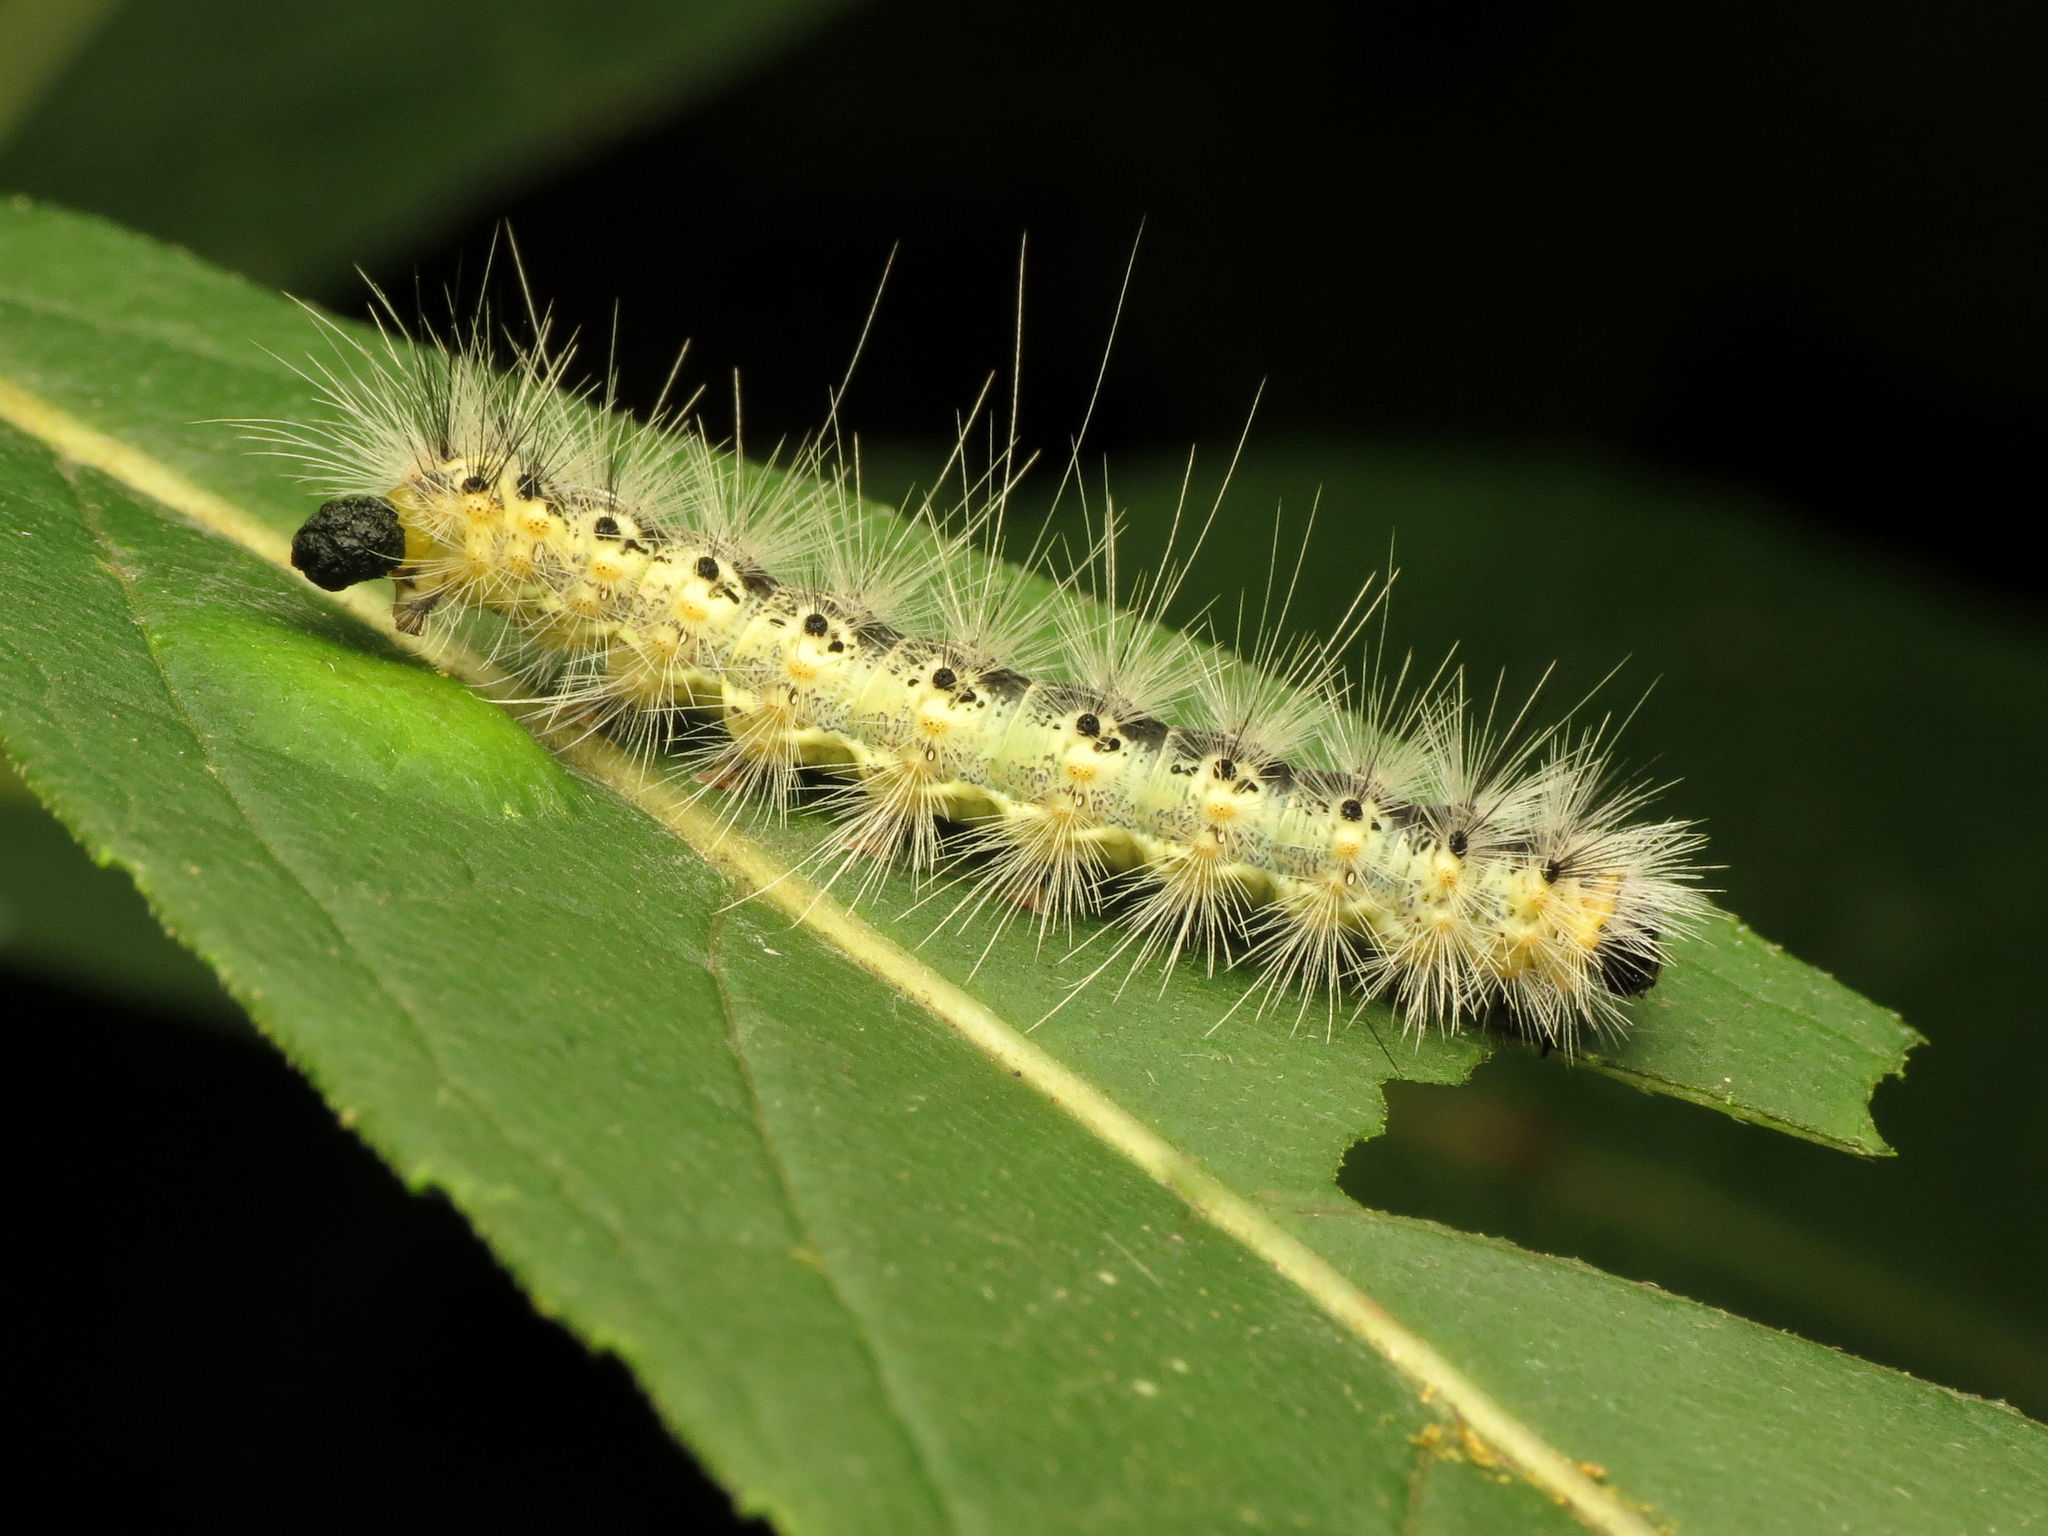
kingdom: Animalia
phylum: Arthropoda
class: Insecta
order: Lepidoptera
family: Erebidae
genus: Hyphantria
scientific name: Hyphantria cunea
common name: American white moth
